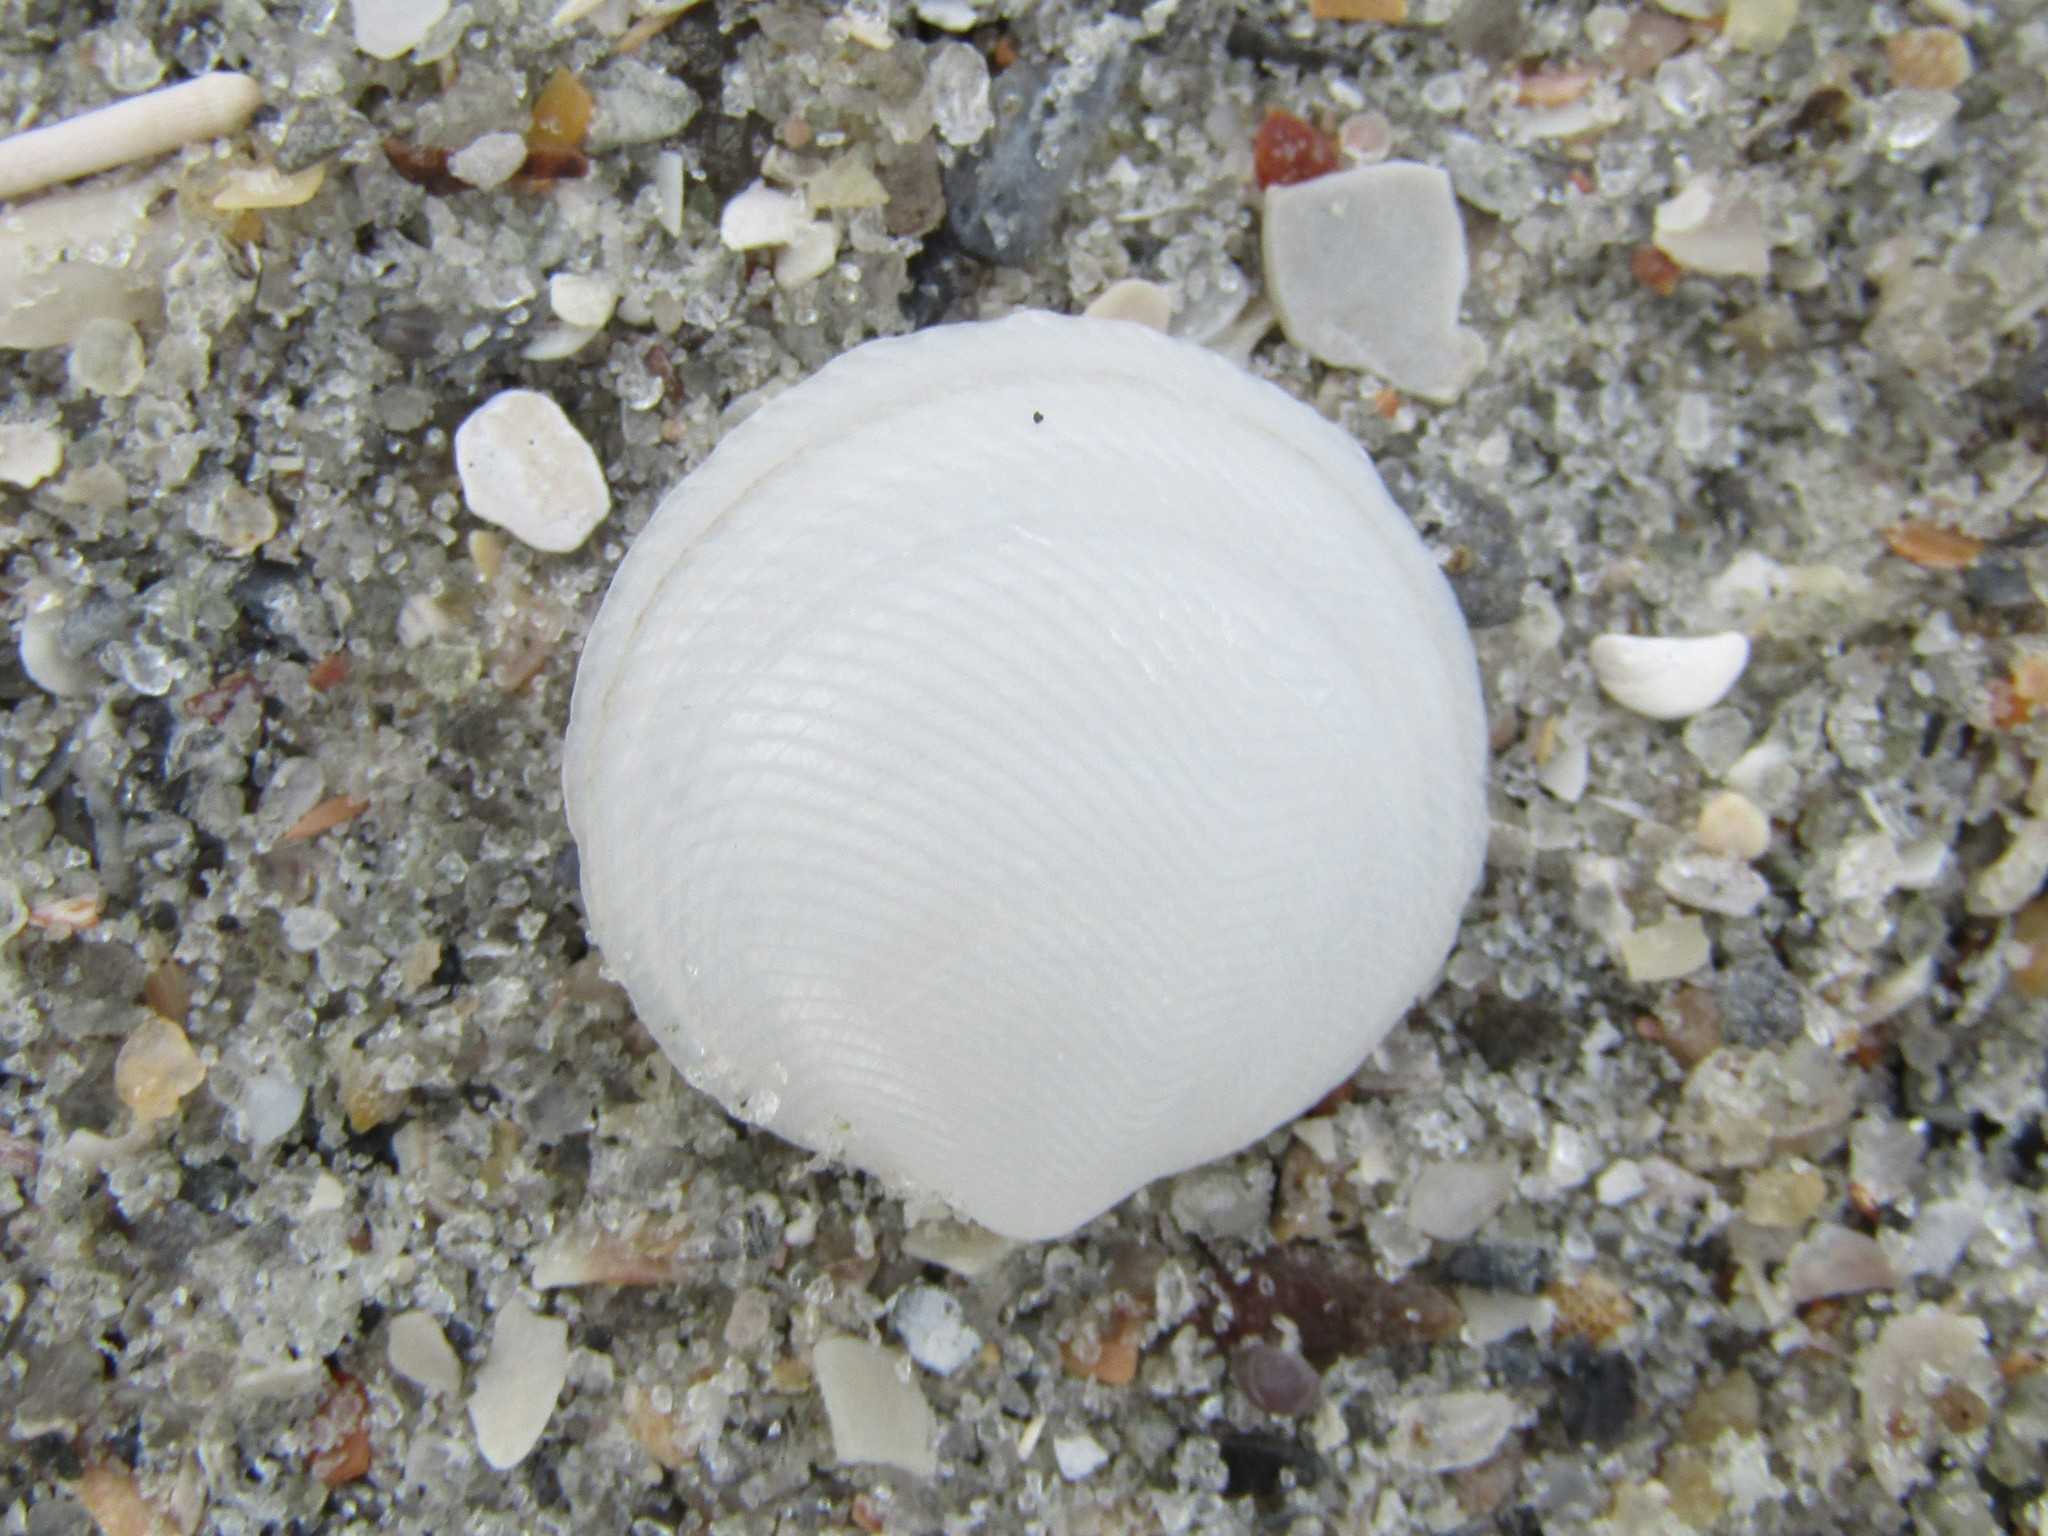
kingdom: Animalia
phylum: Mollusca
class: Bivalvia
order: Lucinida
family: Lucinidae
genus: Divalinga
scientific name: Divalinga quadrisulcata
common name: Cross-hatched lucine
